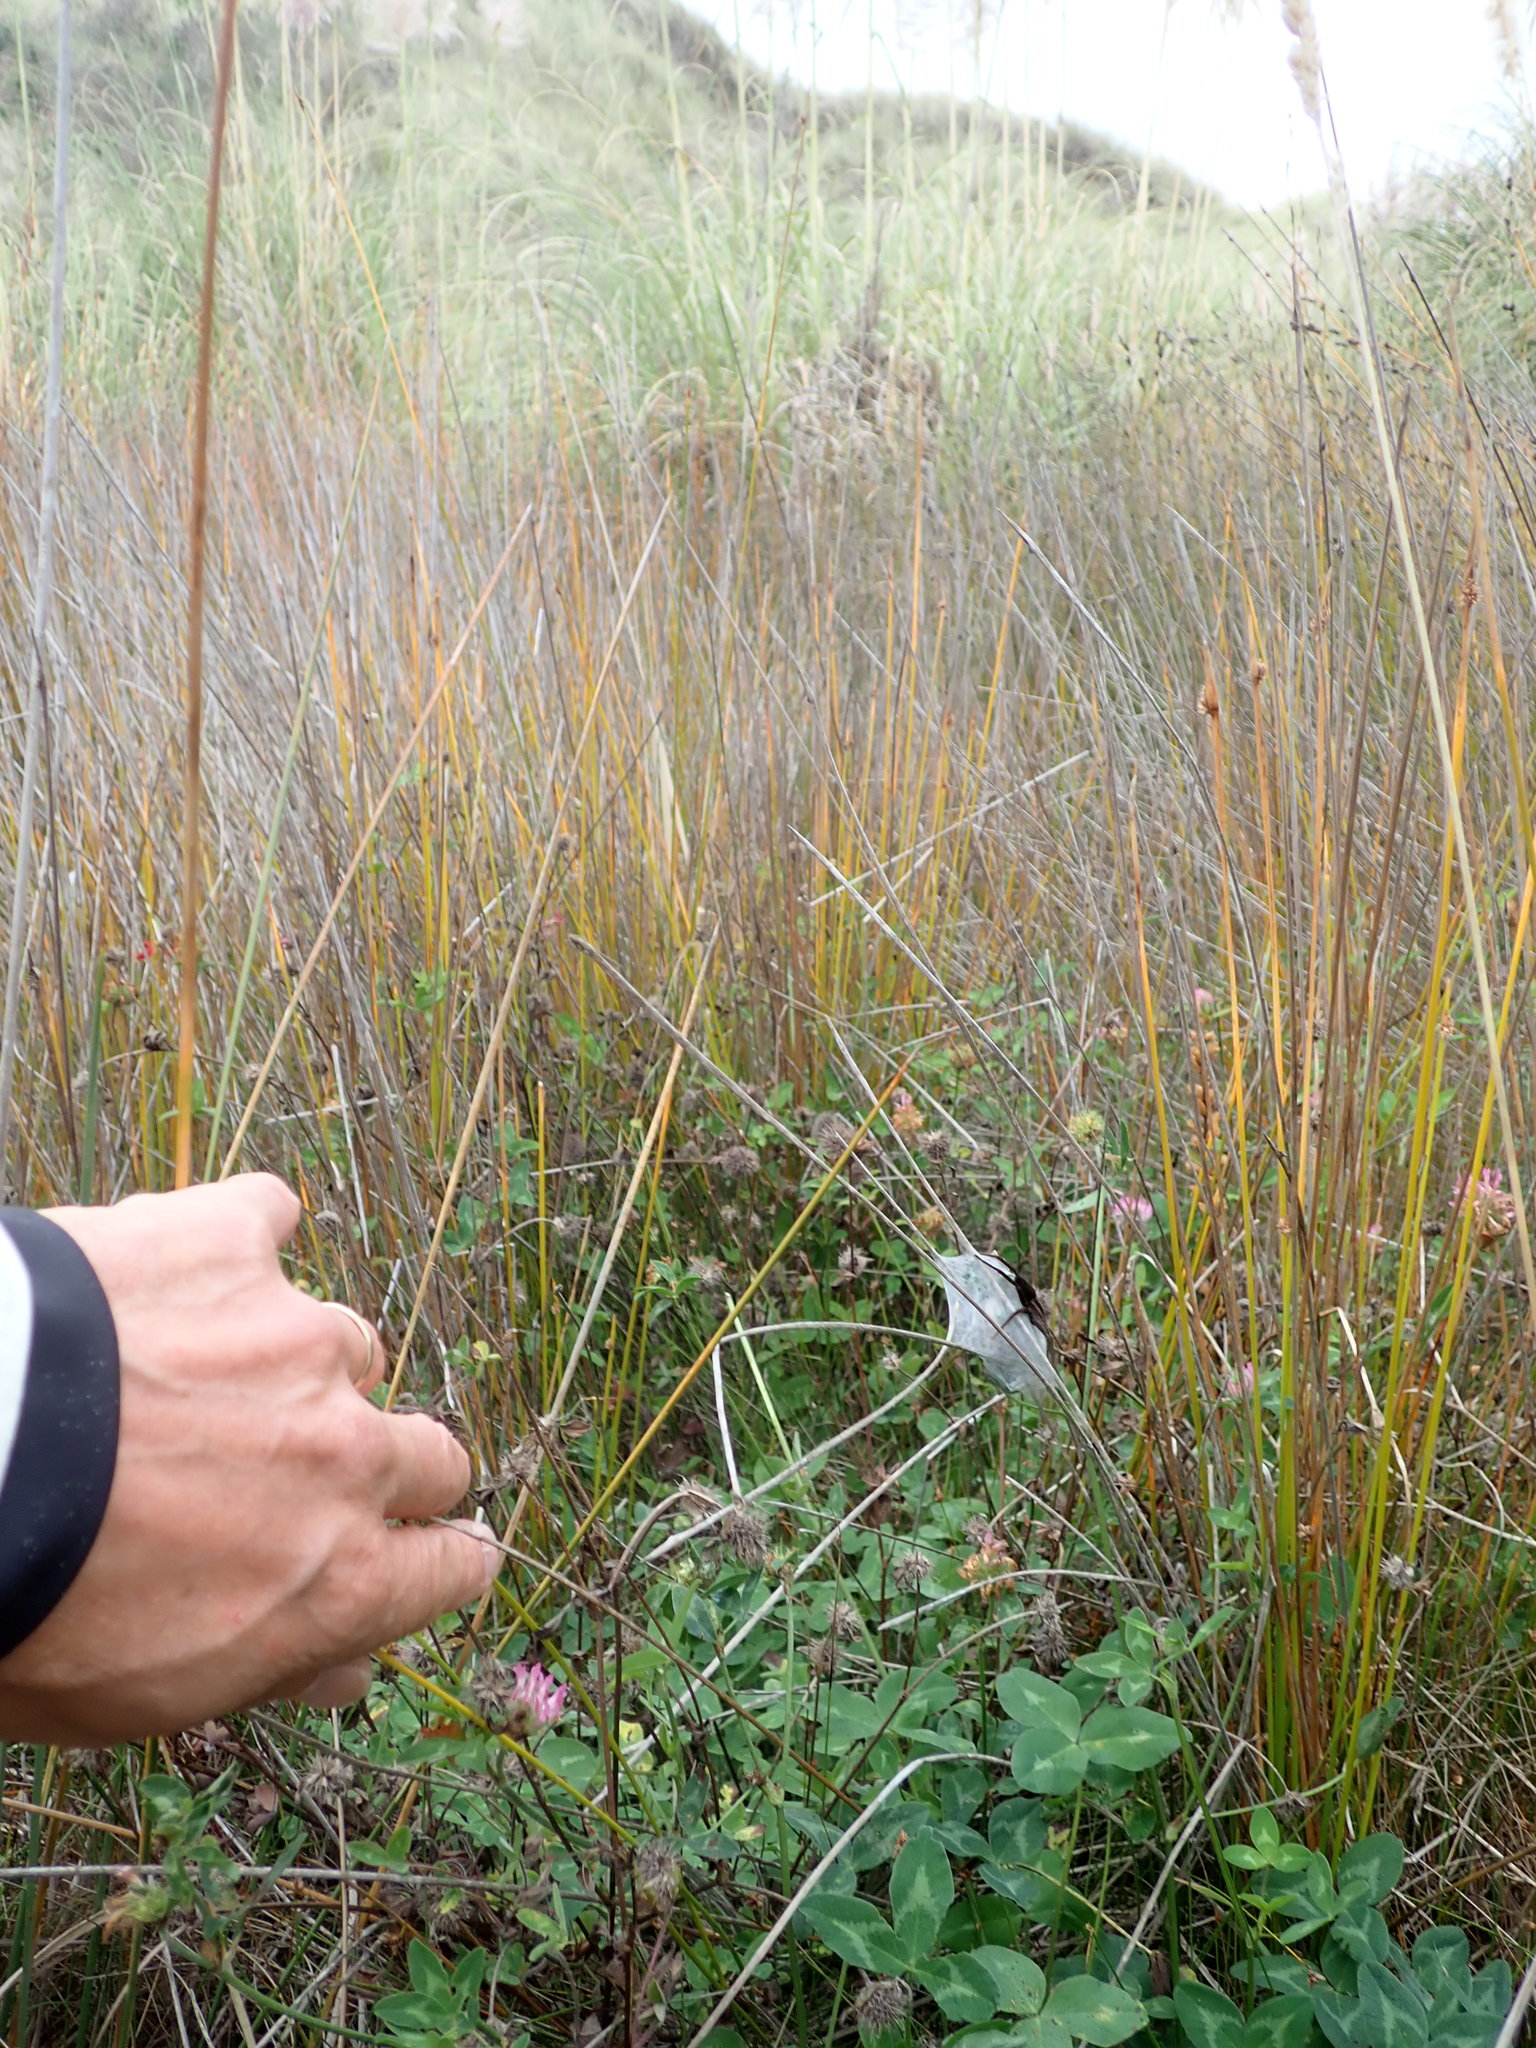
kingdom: Animalia
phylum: Arthropoda
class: Arachnida
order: Araneae
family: Pisauridae
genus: Dolomedes
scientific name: Dolomedes minor
